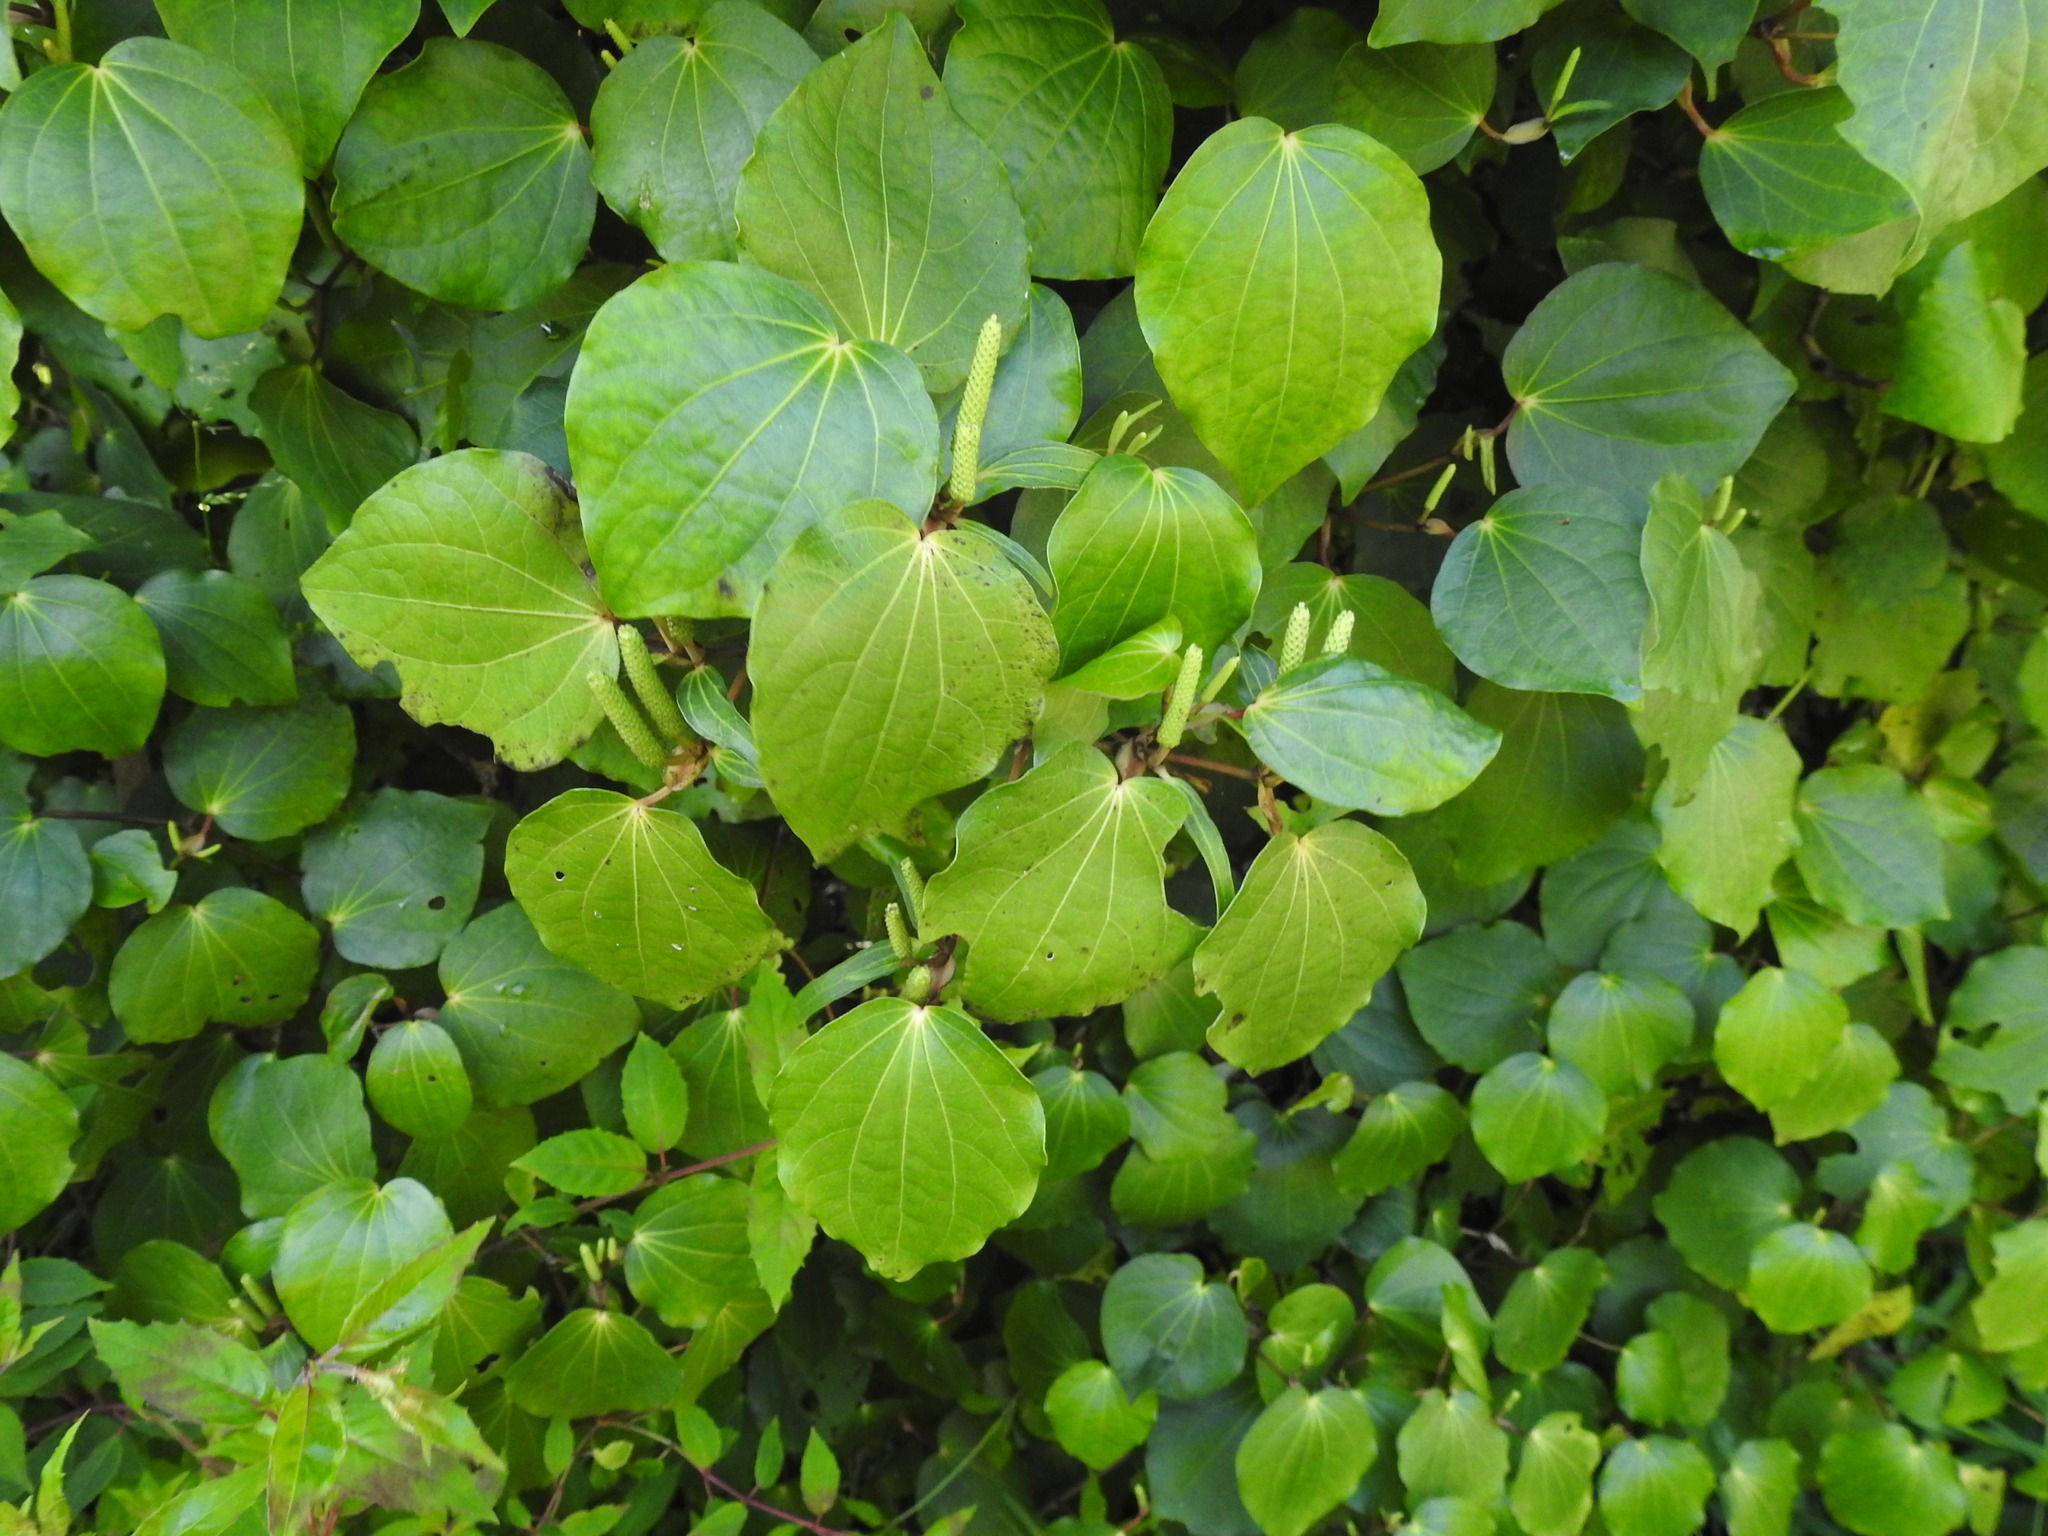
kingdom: Plantae
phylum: Tracheophyta
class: Magnoliopsida
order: Piperales
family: Piperaceae
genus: Macropiper
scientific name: Macropiper excelsum
